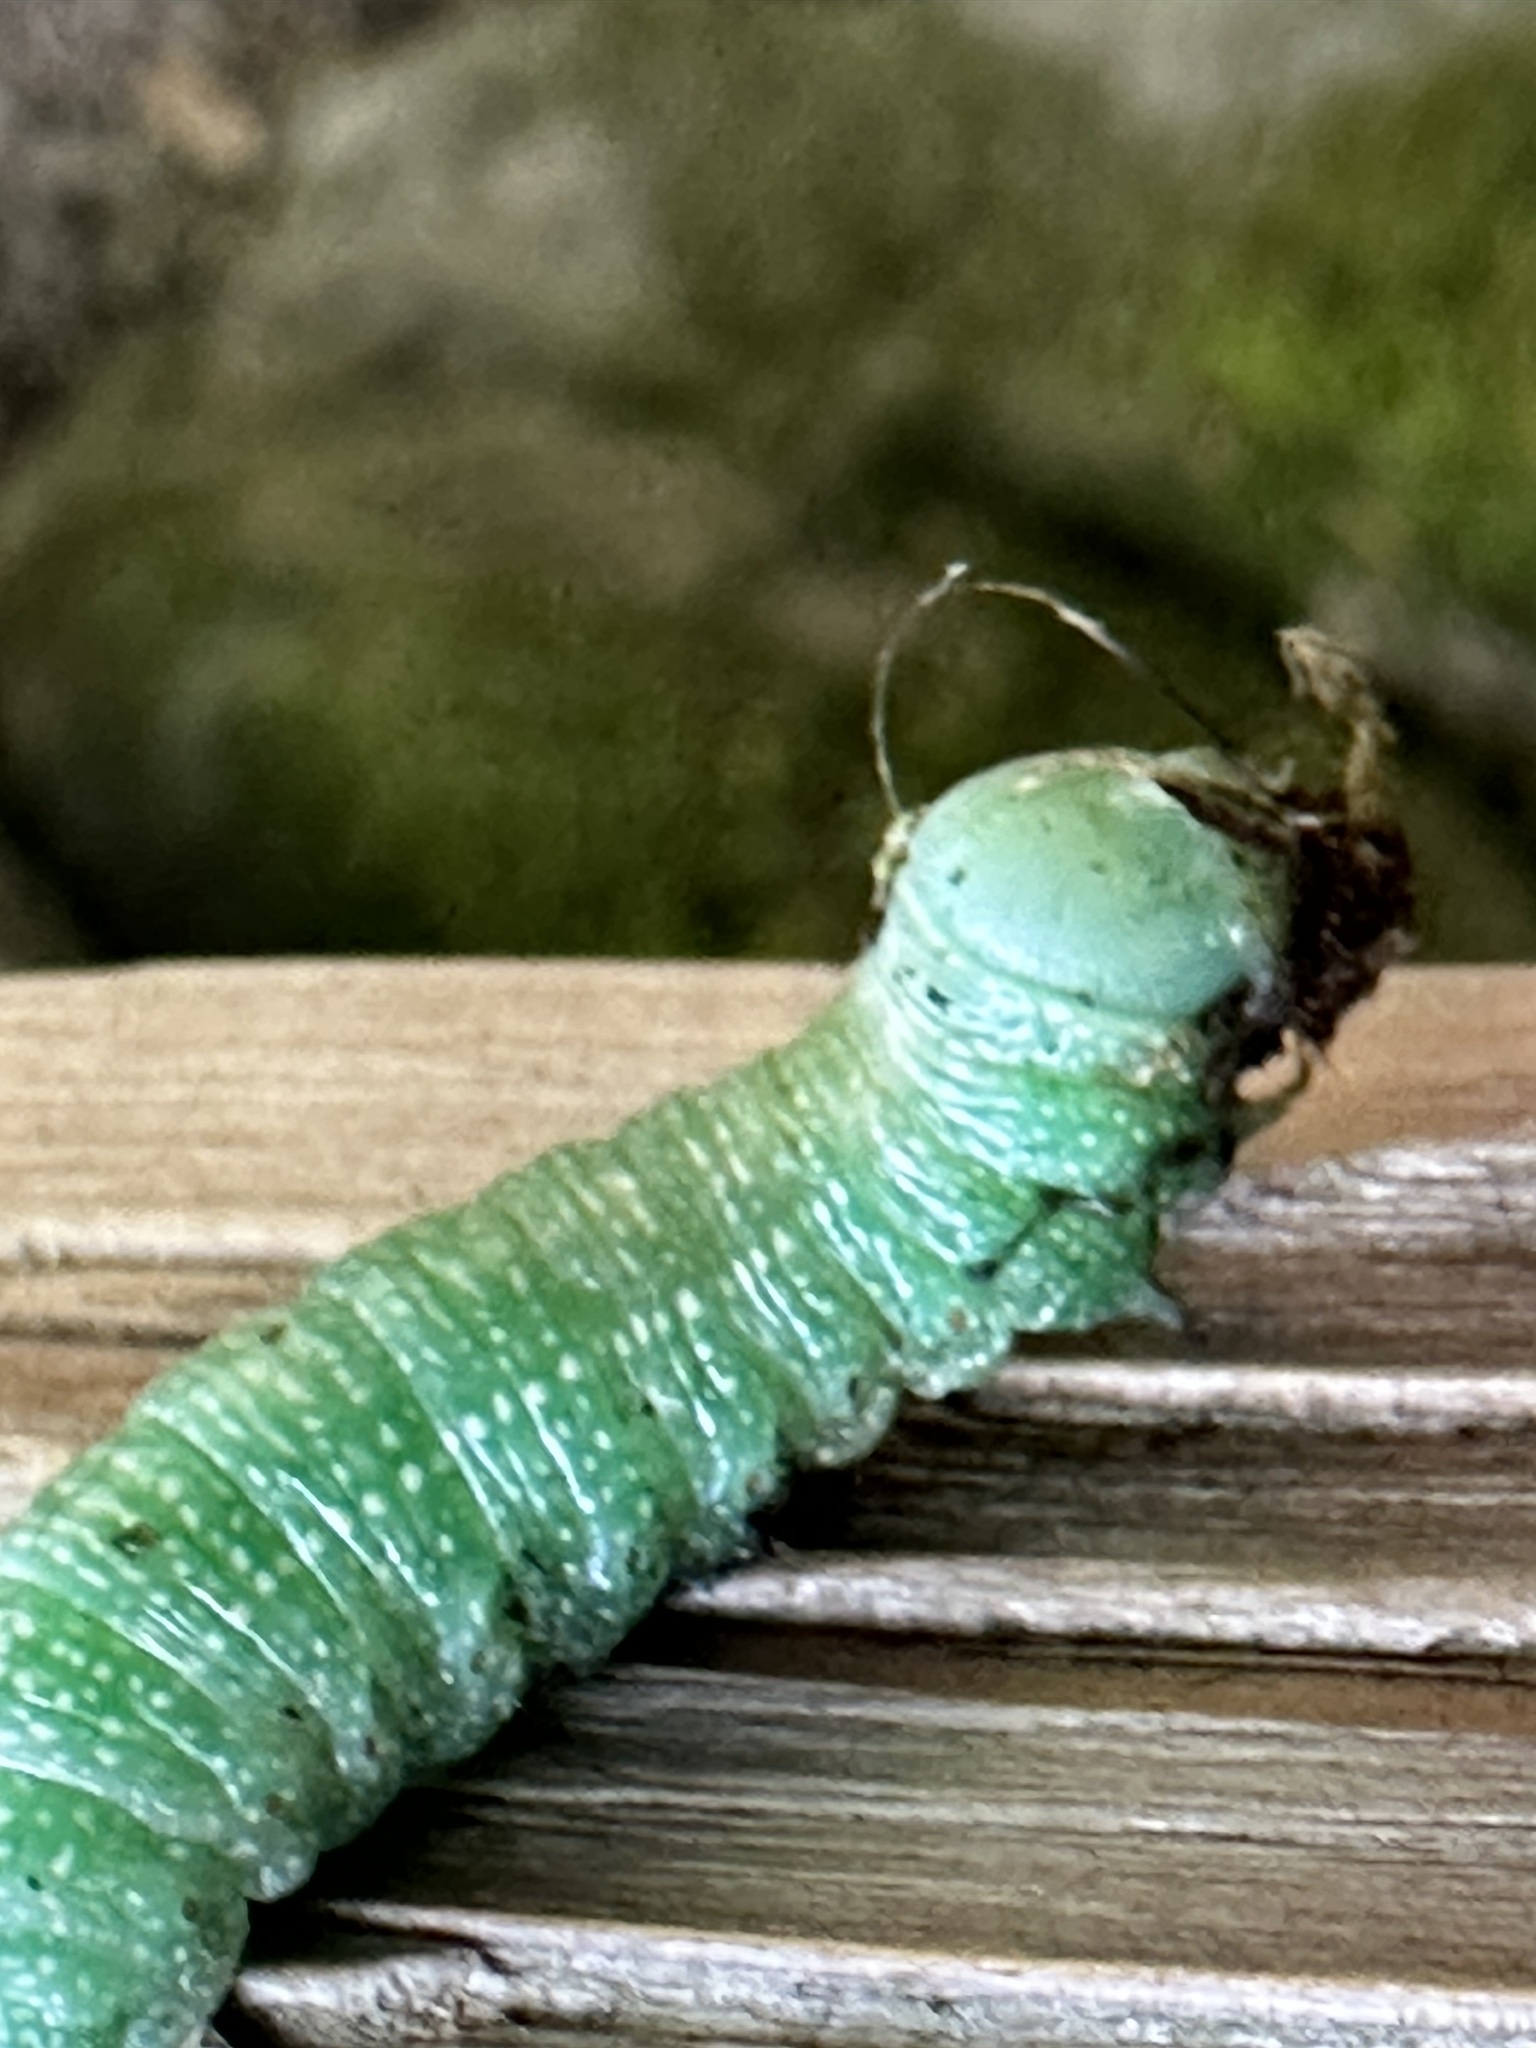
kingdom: Animalia
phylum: Arthropoda
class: Insecta
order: Lepidoptera
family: Notodontidae
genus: Nadata
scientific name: Nadata gibbosa
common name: White-dotted prominent
